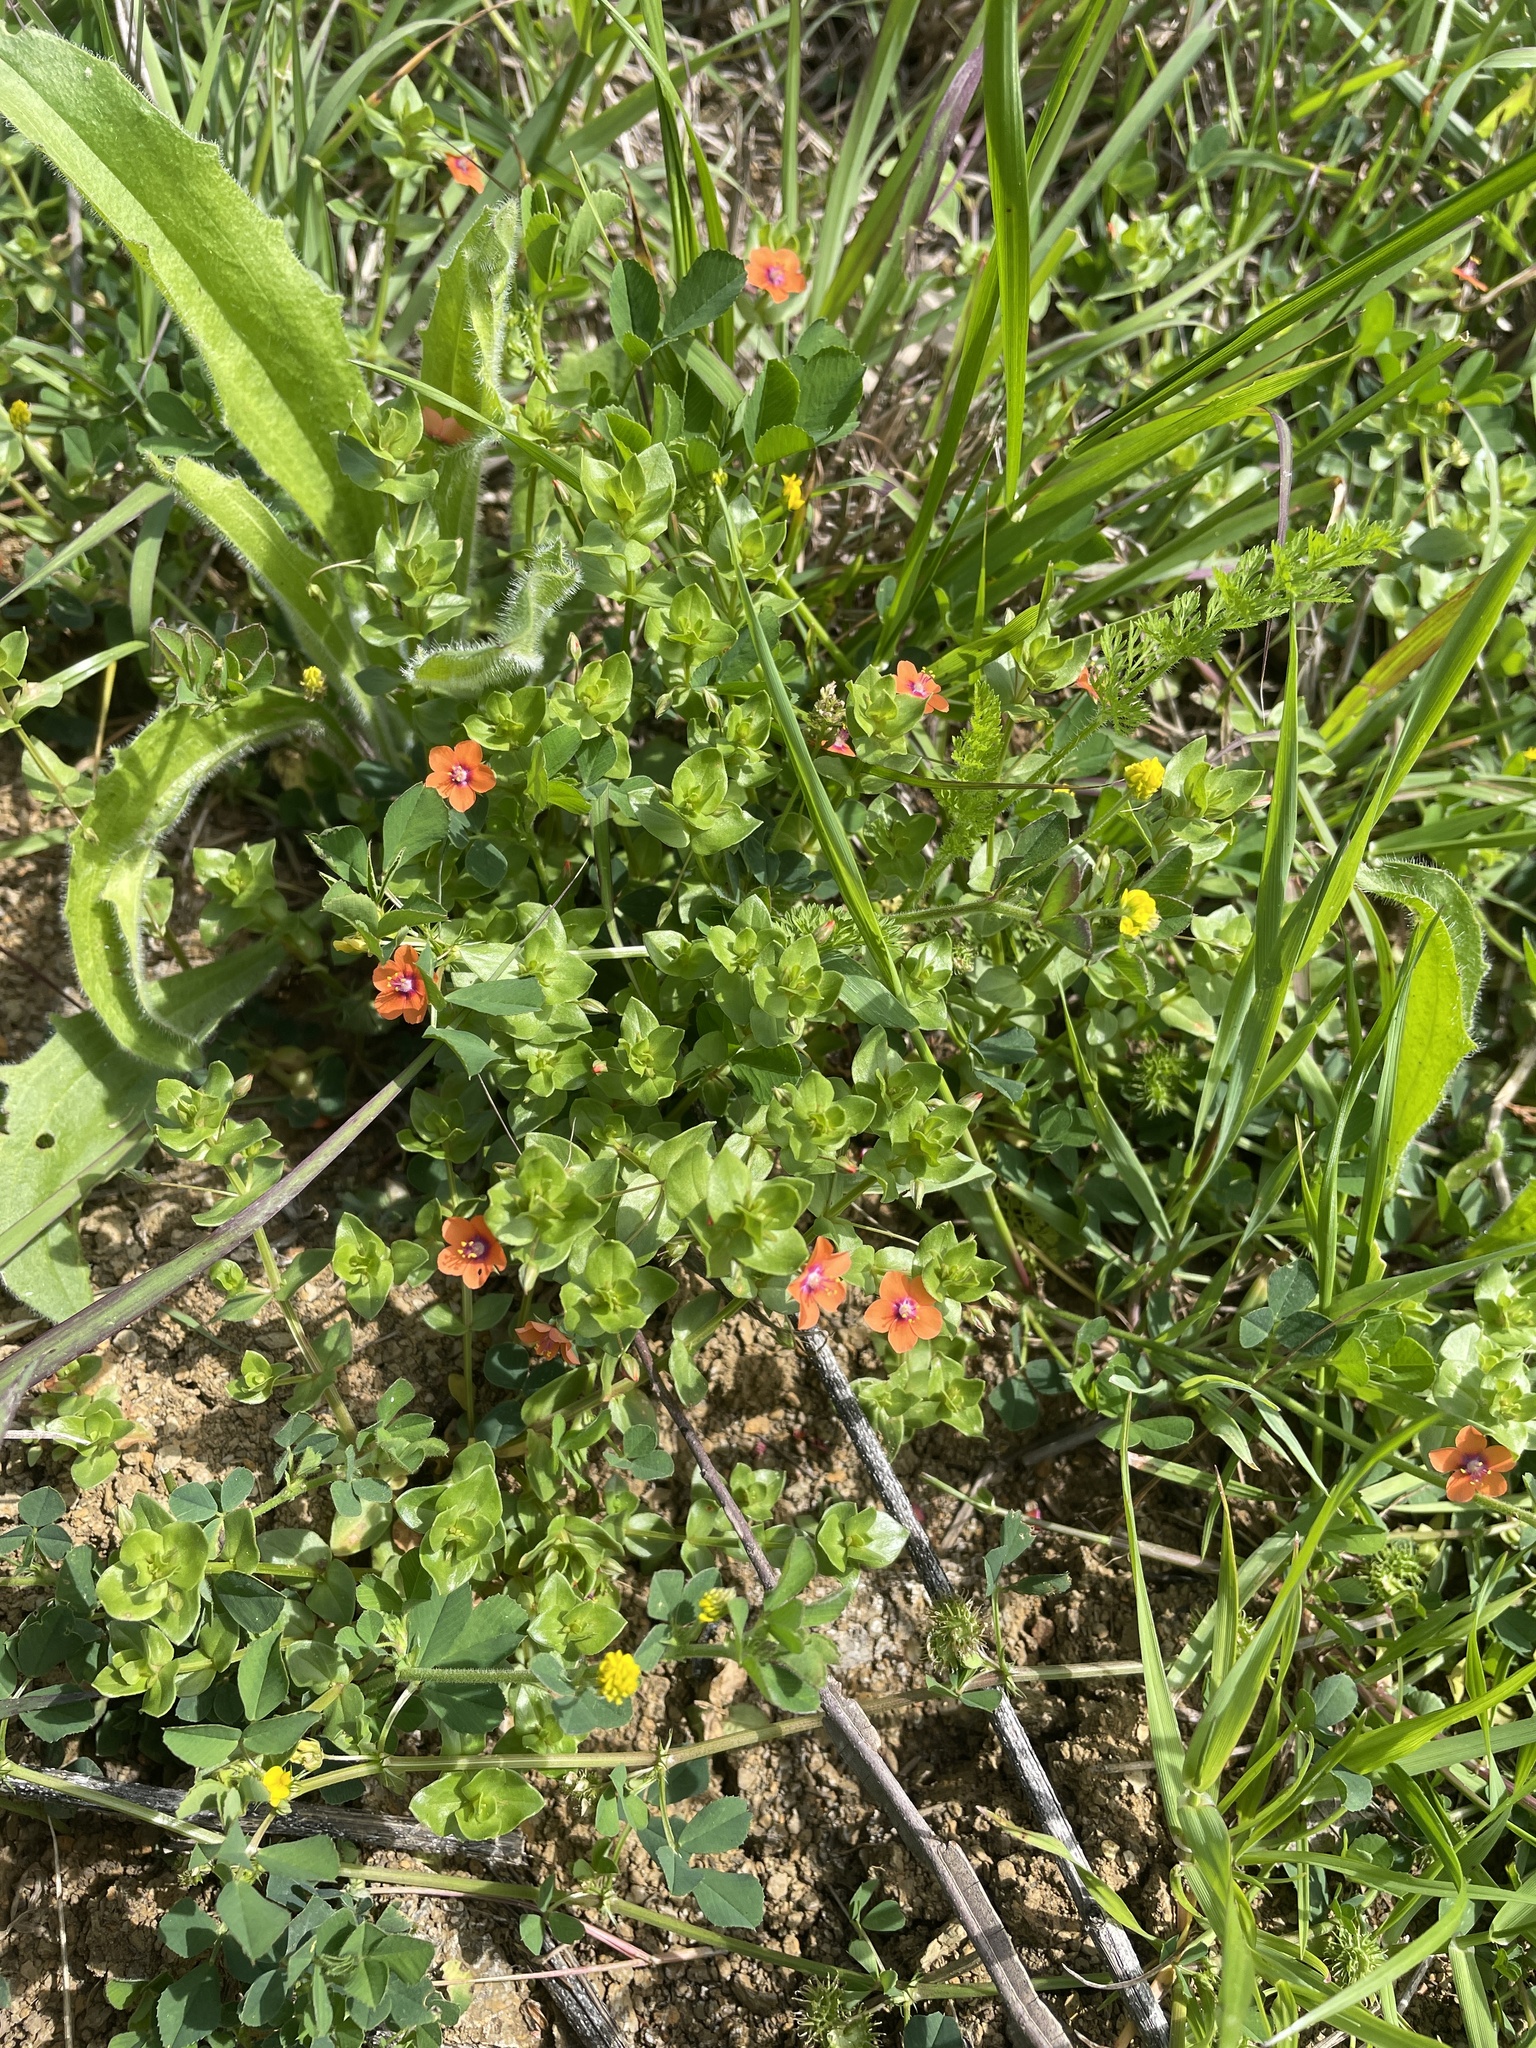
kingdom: Plantae
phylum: Tracheophyta
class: Magnoliopsida
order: Ericales
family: Primulaceae
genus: Lysimachia
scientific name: Lysimachia arvensis
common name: Scarlet pimpernel
